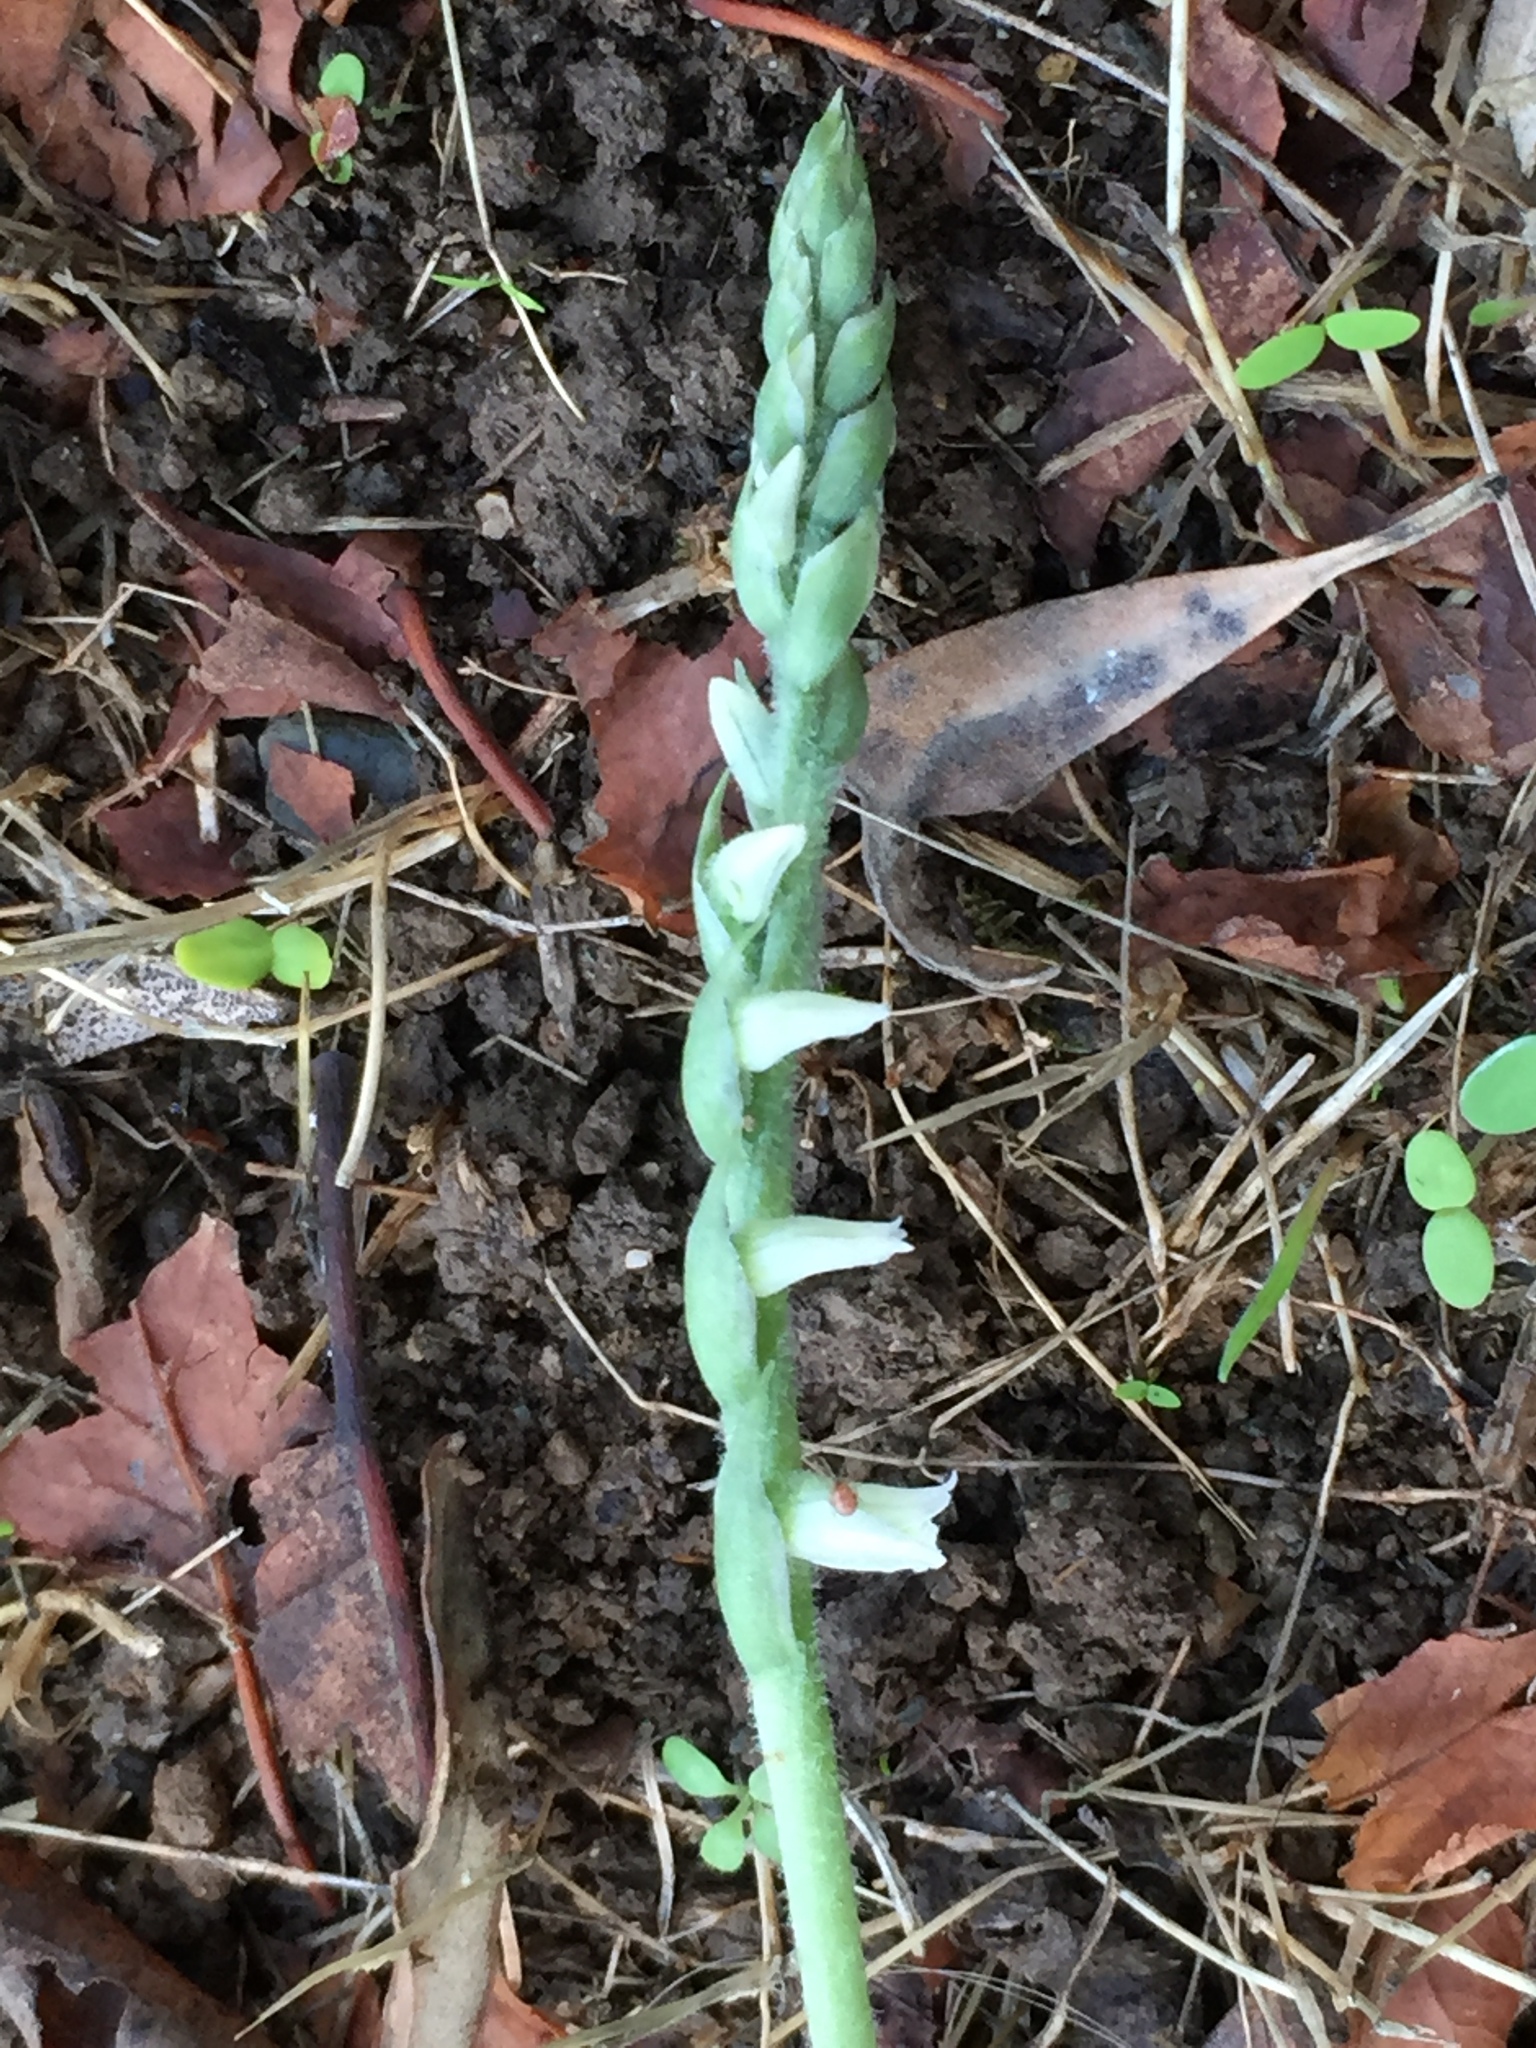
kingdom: Plantae
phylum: Tracheophyta
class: Liliopsida
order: Asparagales
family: Orchidaceae
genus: Spiranthes
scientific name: Spiranthes spiralis
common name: Autumn lady's-tresses
